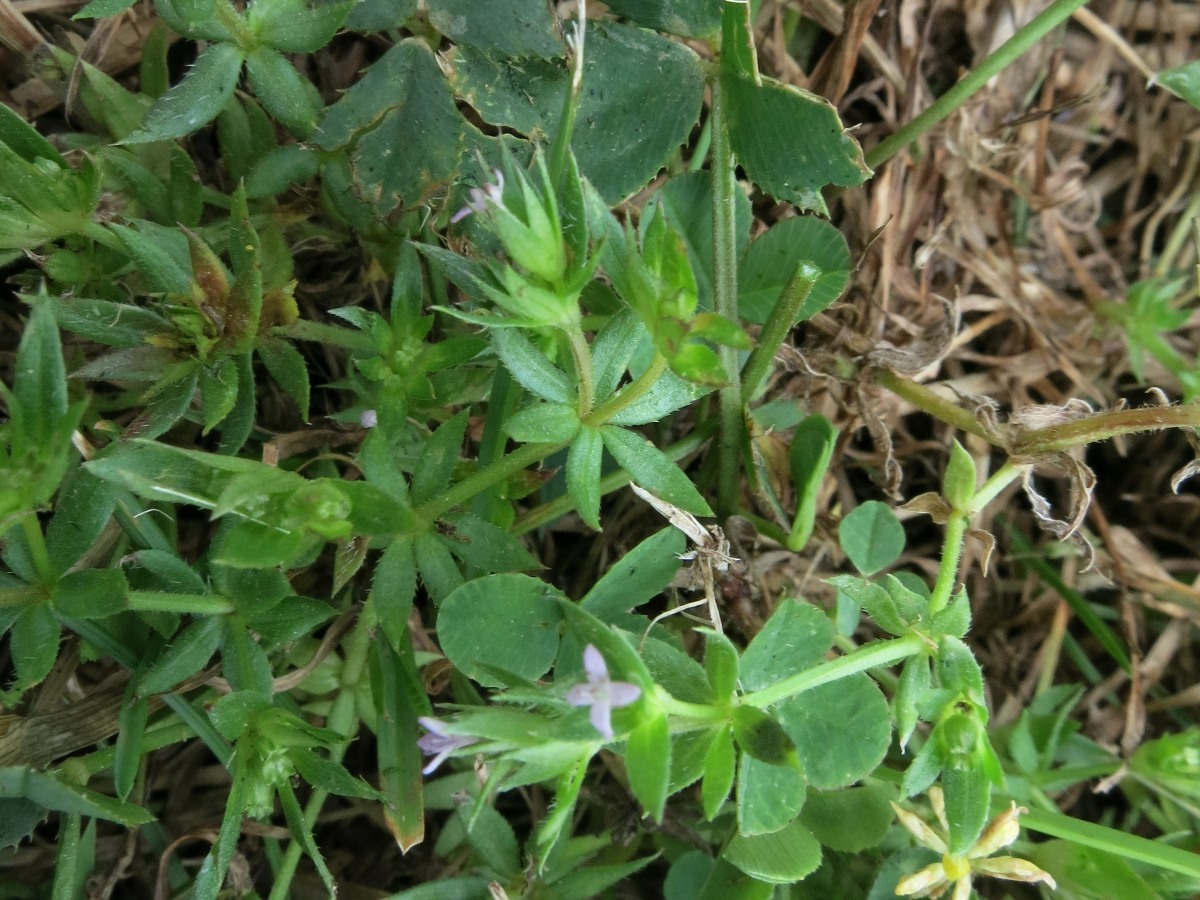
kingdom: Plantae
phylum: Tracheophyta
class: Magnoliopsida
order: Gentianales
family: Rubiaceae
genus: Sherardia
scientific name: Sherardia arvensis
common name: Field madder
